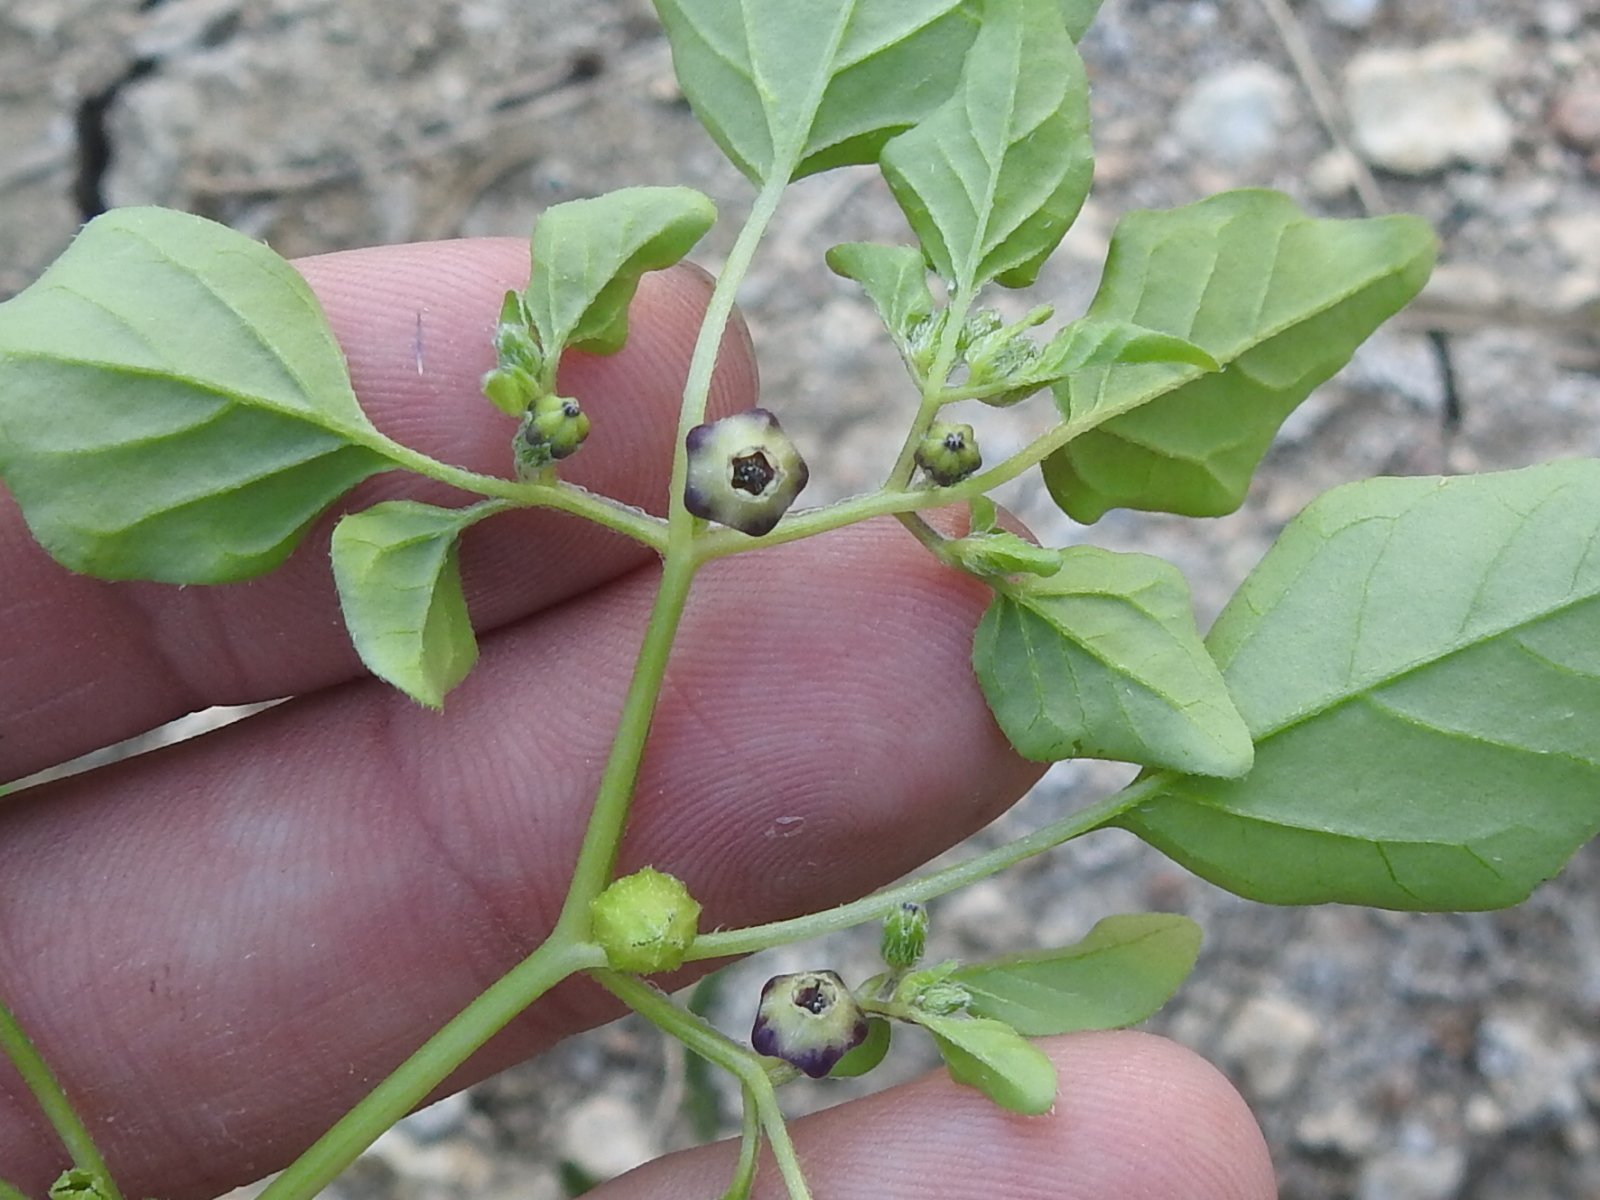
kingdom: Plantae
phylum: Tracheophyta
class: Magnoliopsida
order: Solanales
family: Solanaceae
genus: Physalis
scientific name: Physalis solanacea
